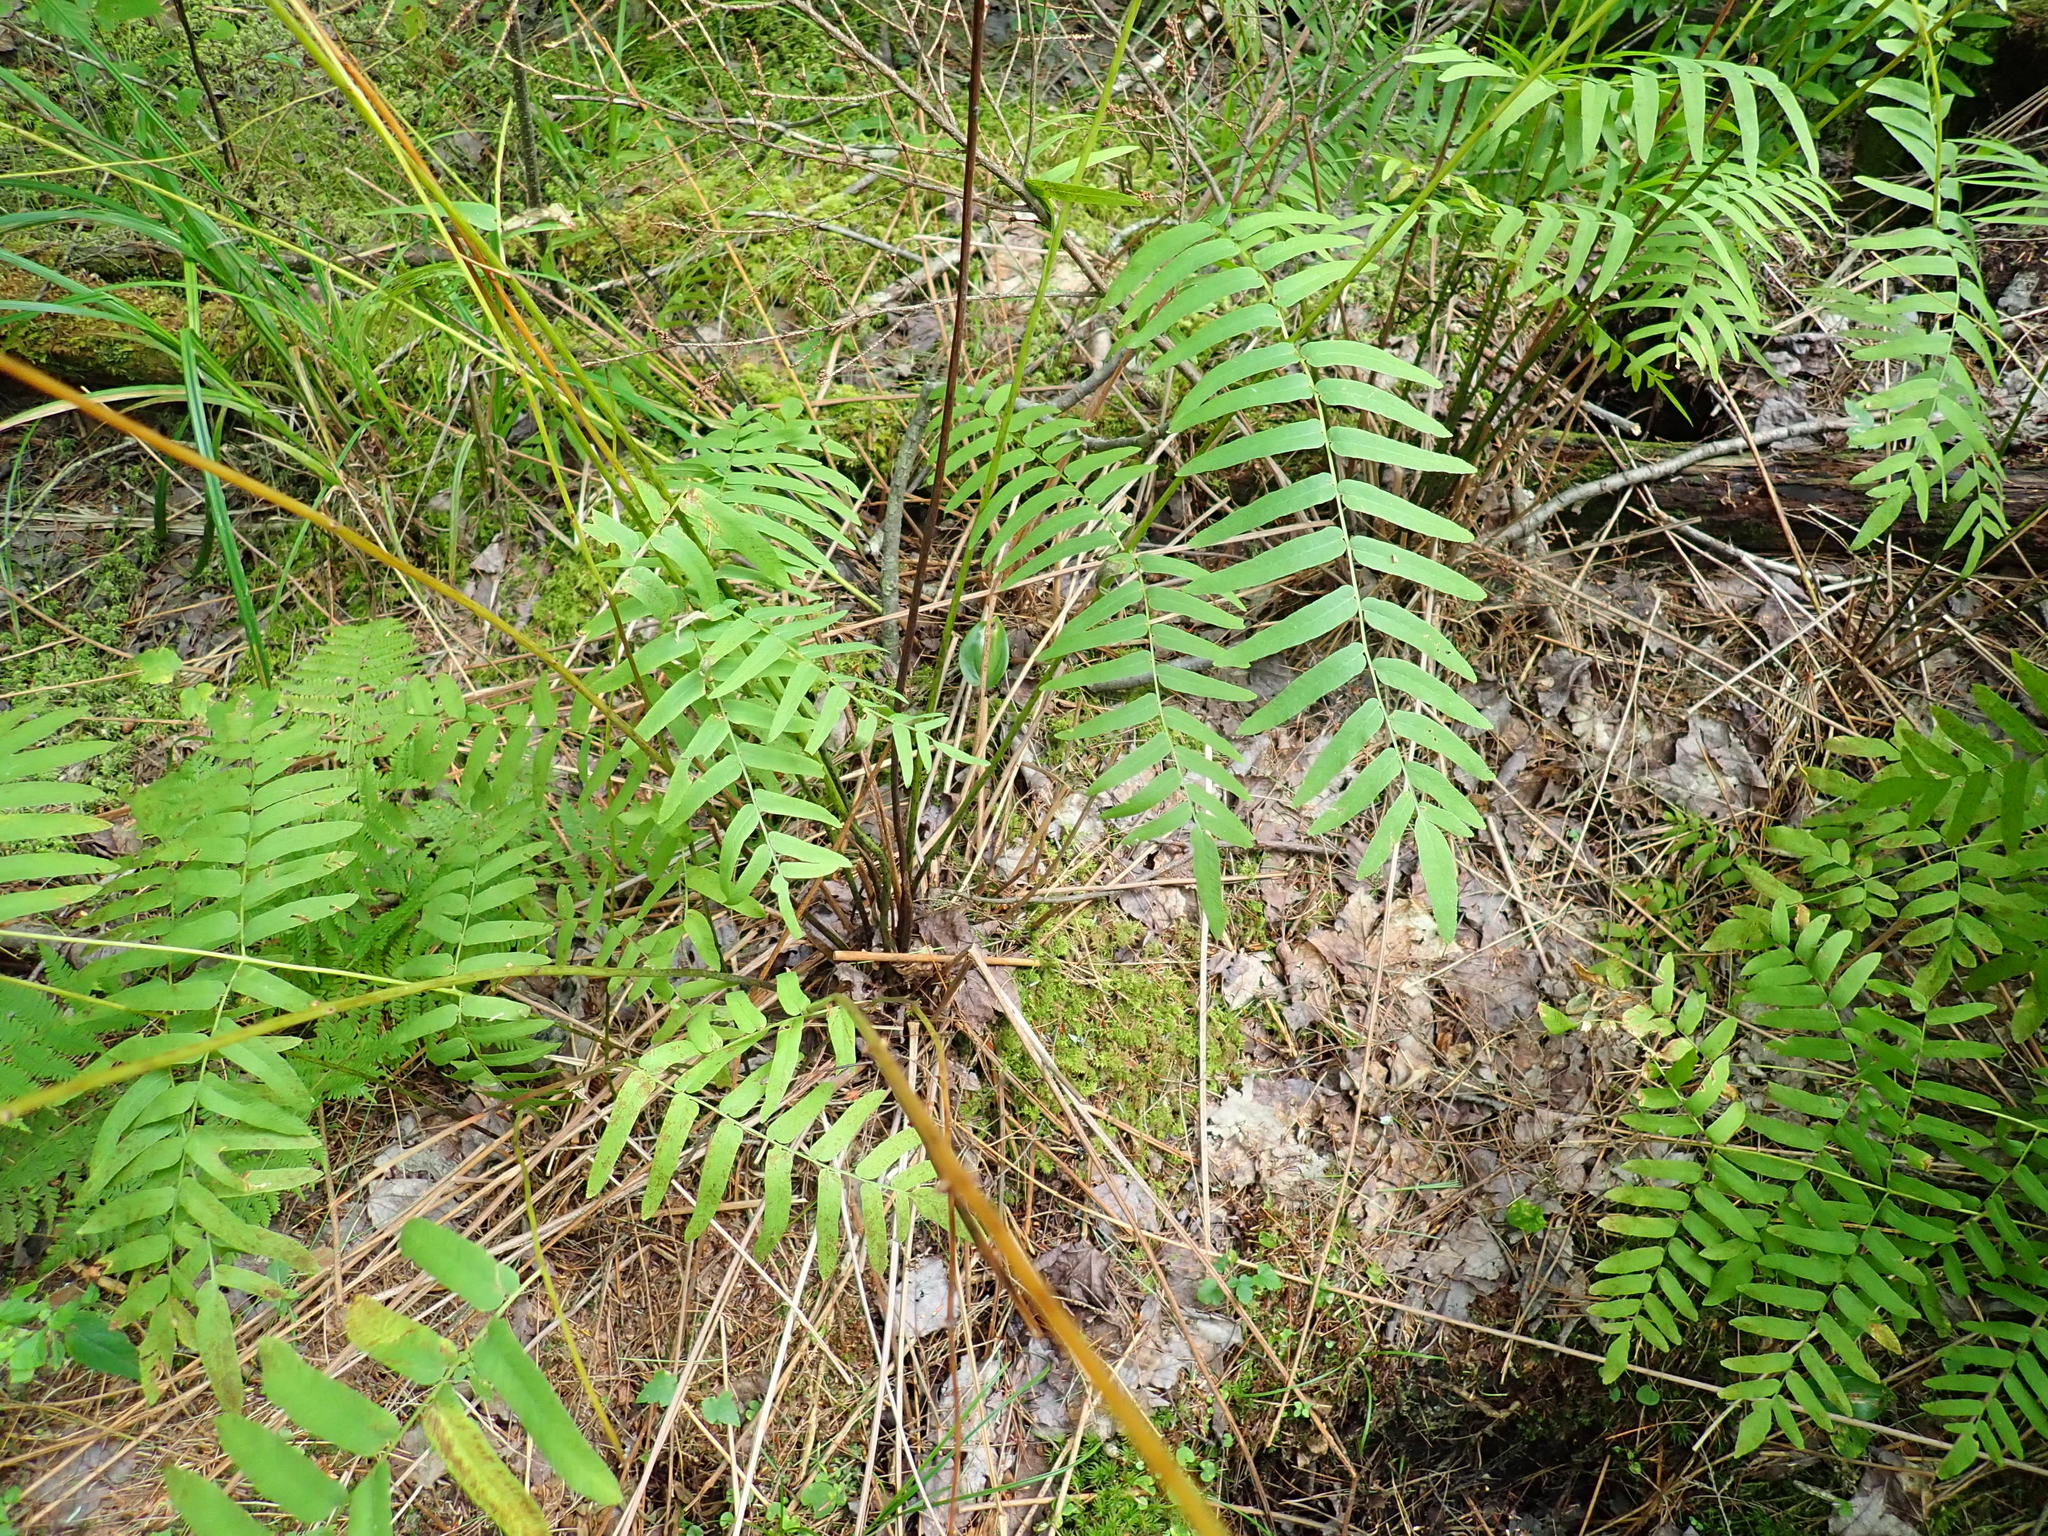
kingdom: Plantae
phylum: Tracheophyta
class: Polypodiopsida
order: Osmundales
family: Osmundaceae
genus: Osmunda
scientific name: Osmunda spectabilis
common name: American royal fern
